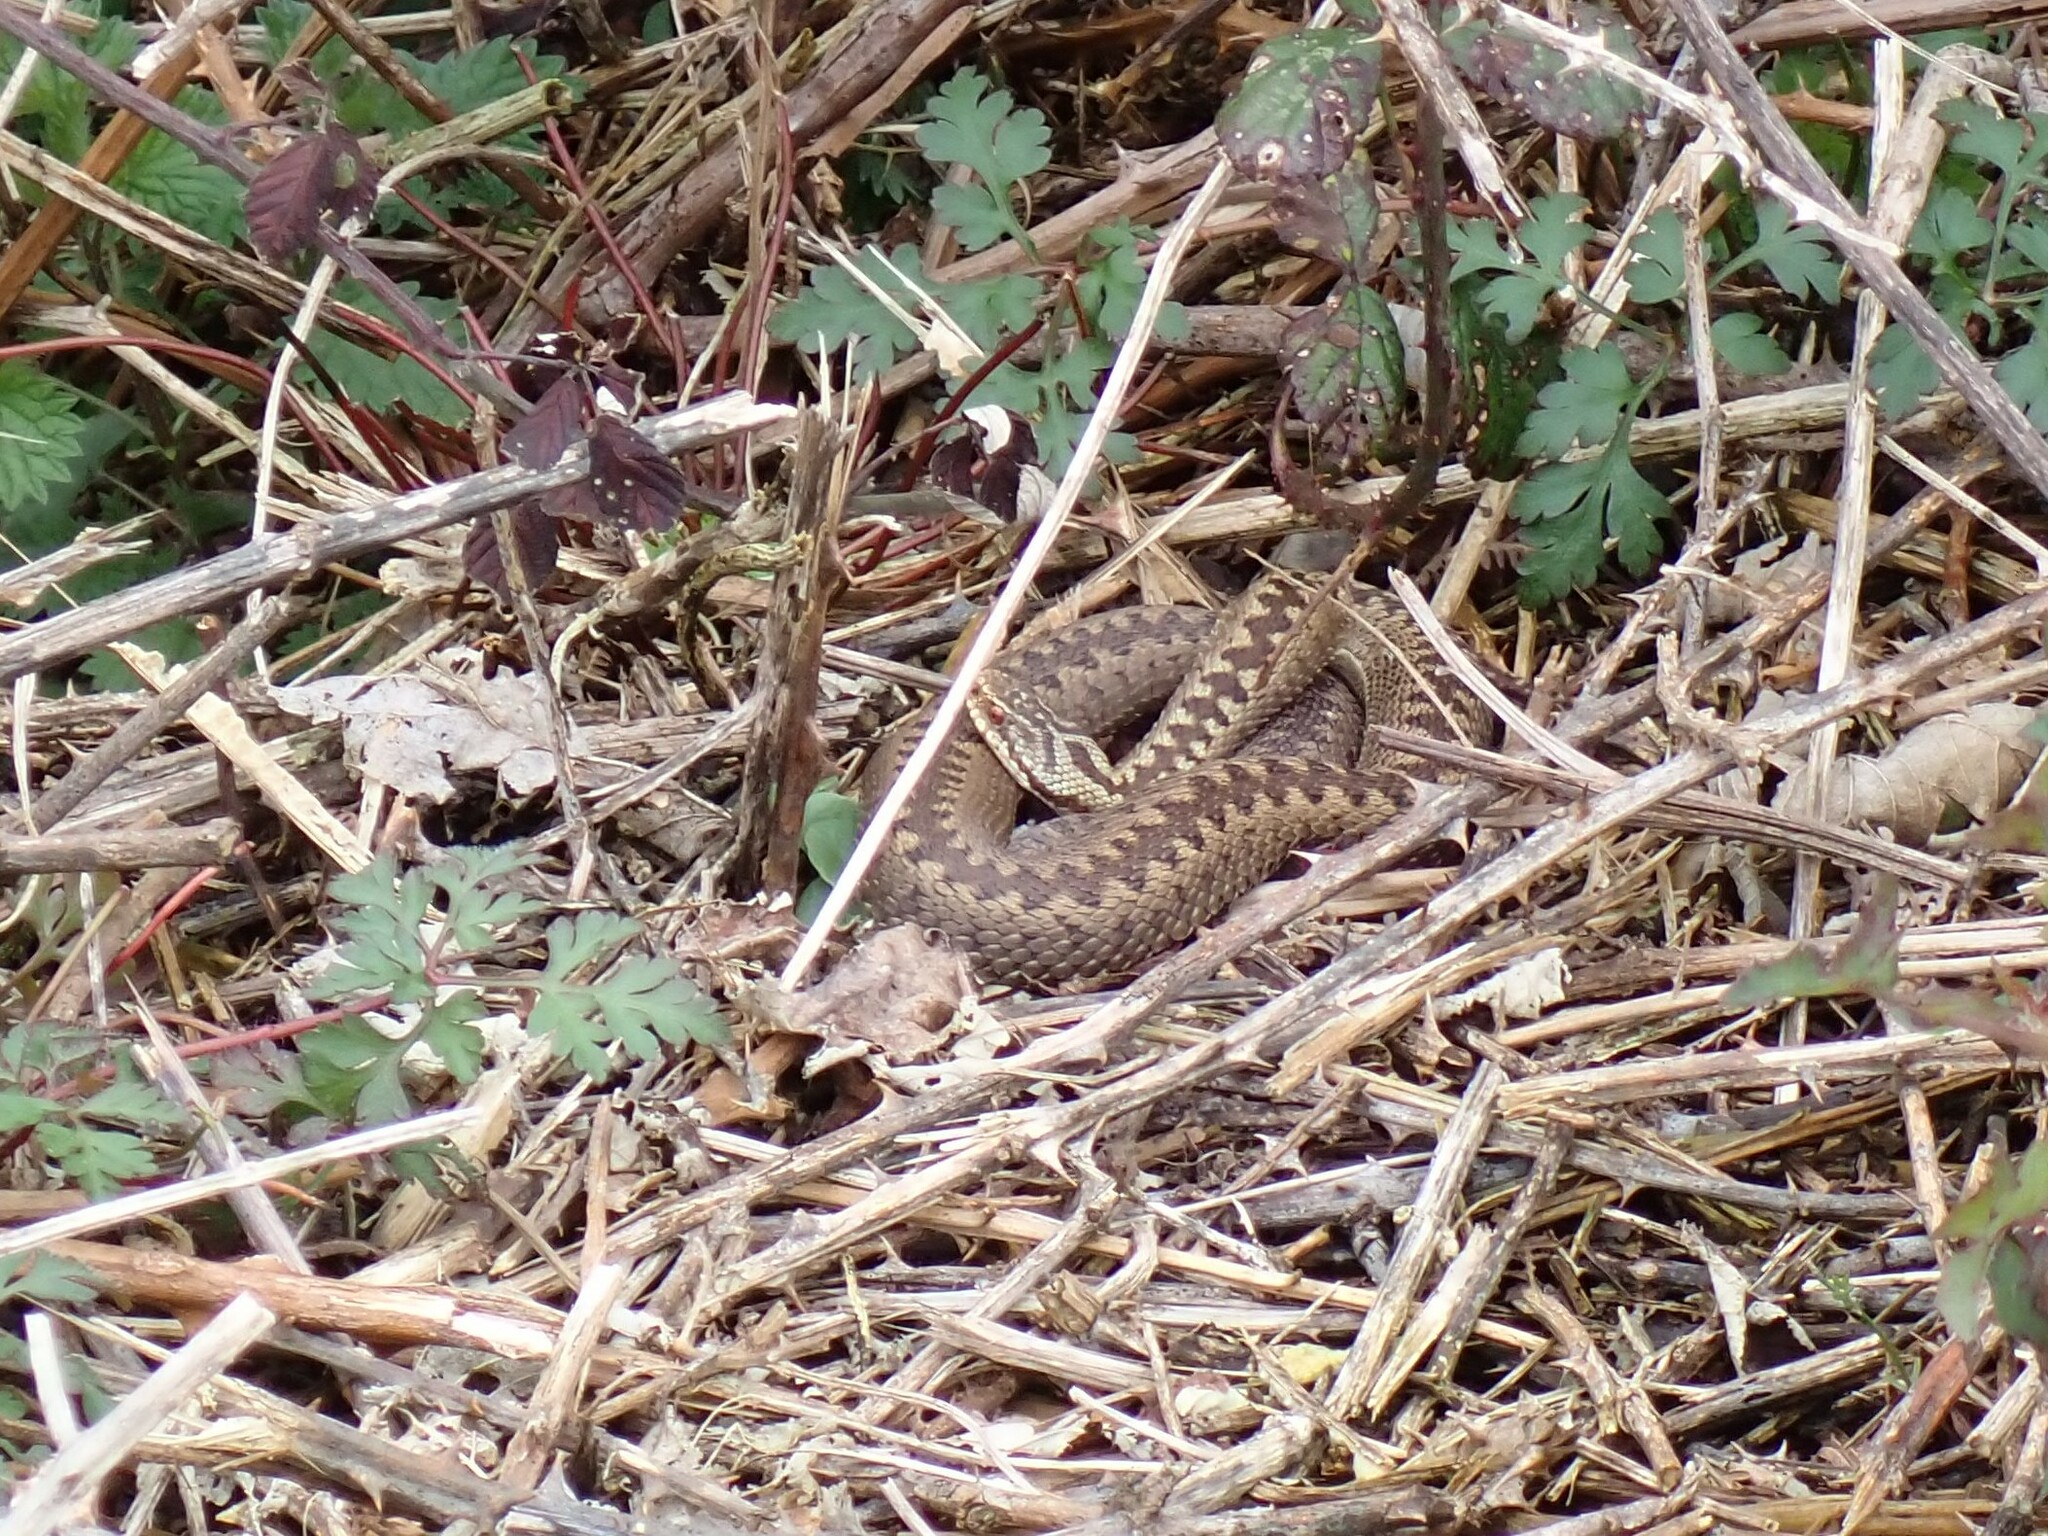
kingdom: Animalia
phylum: Chordata
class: Squamata
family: Viperidae
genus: Vipera
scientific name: Vipera berus
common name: Adder
